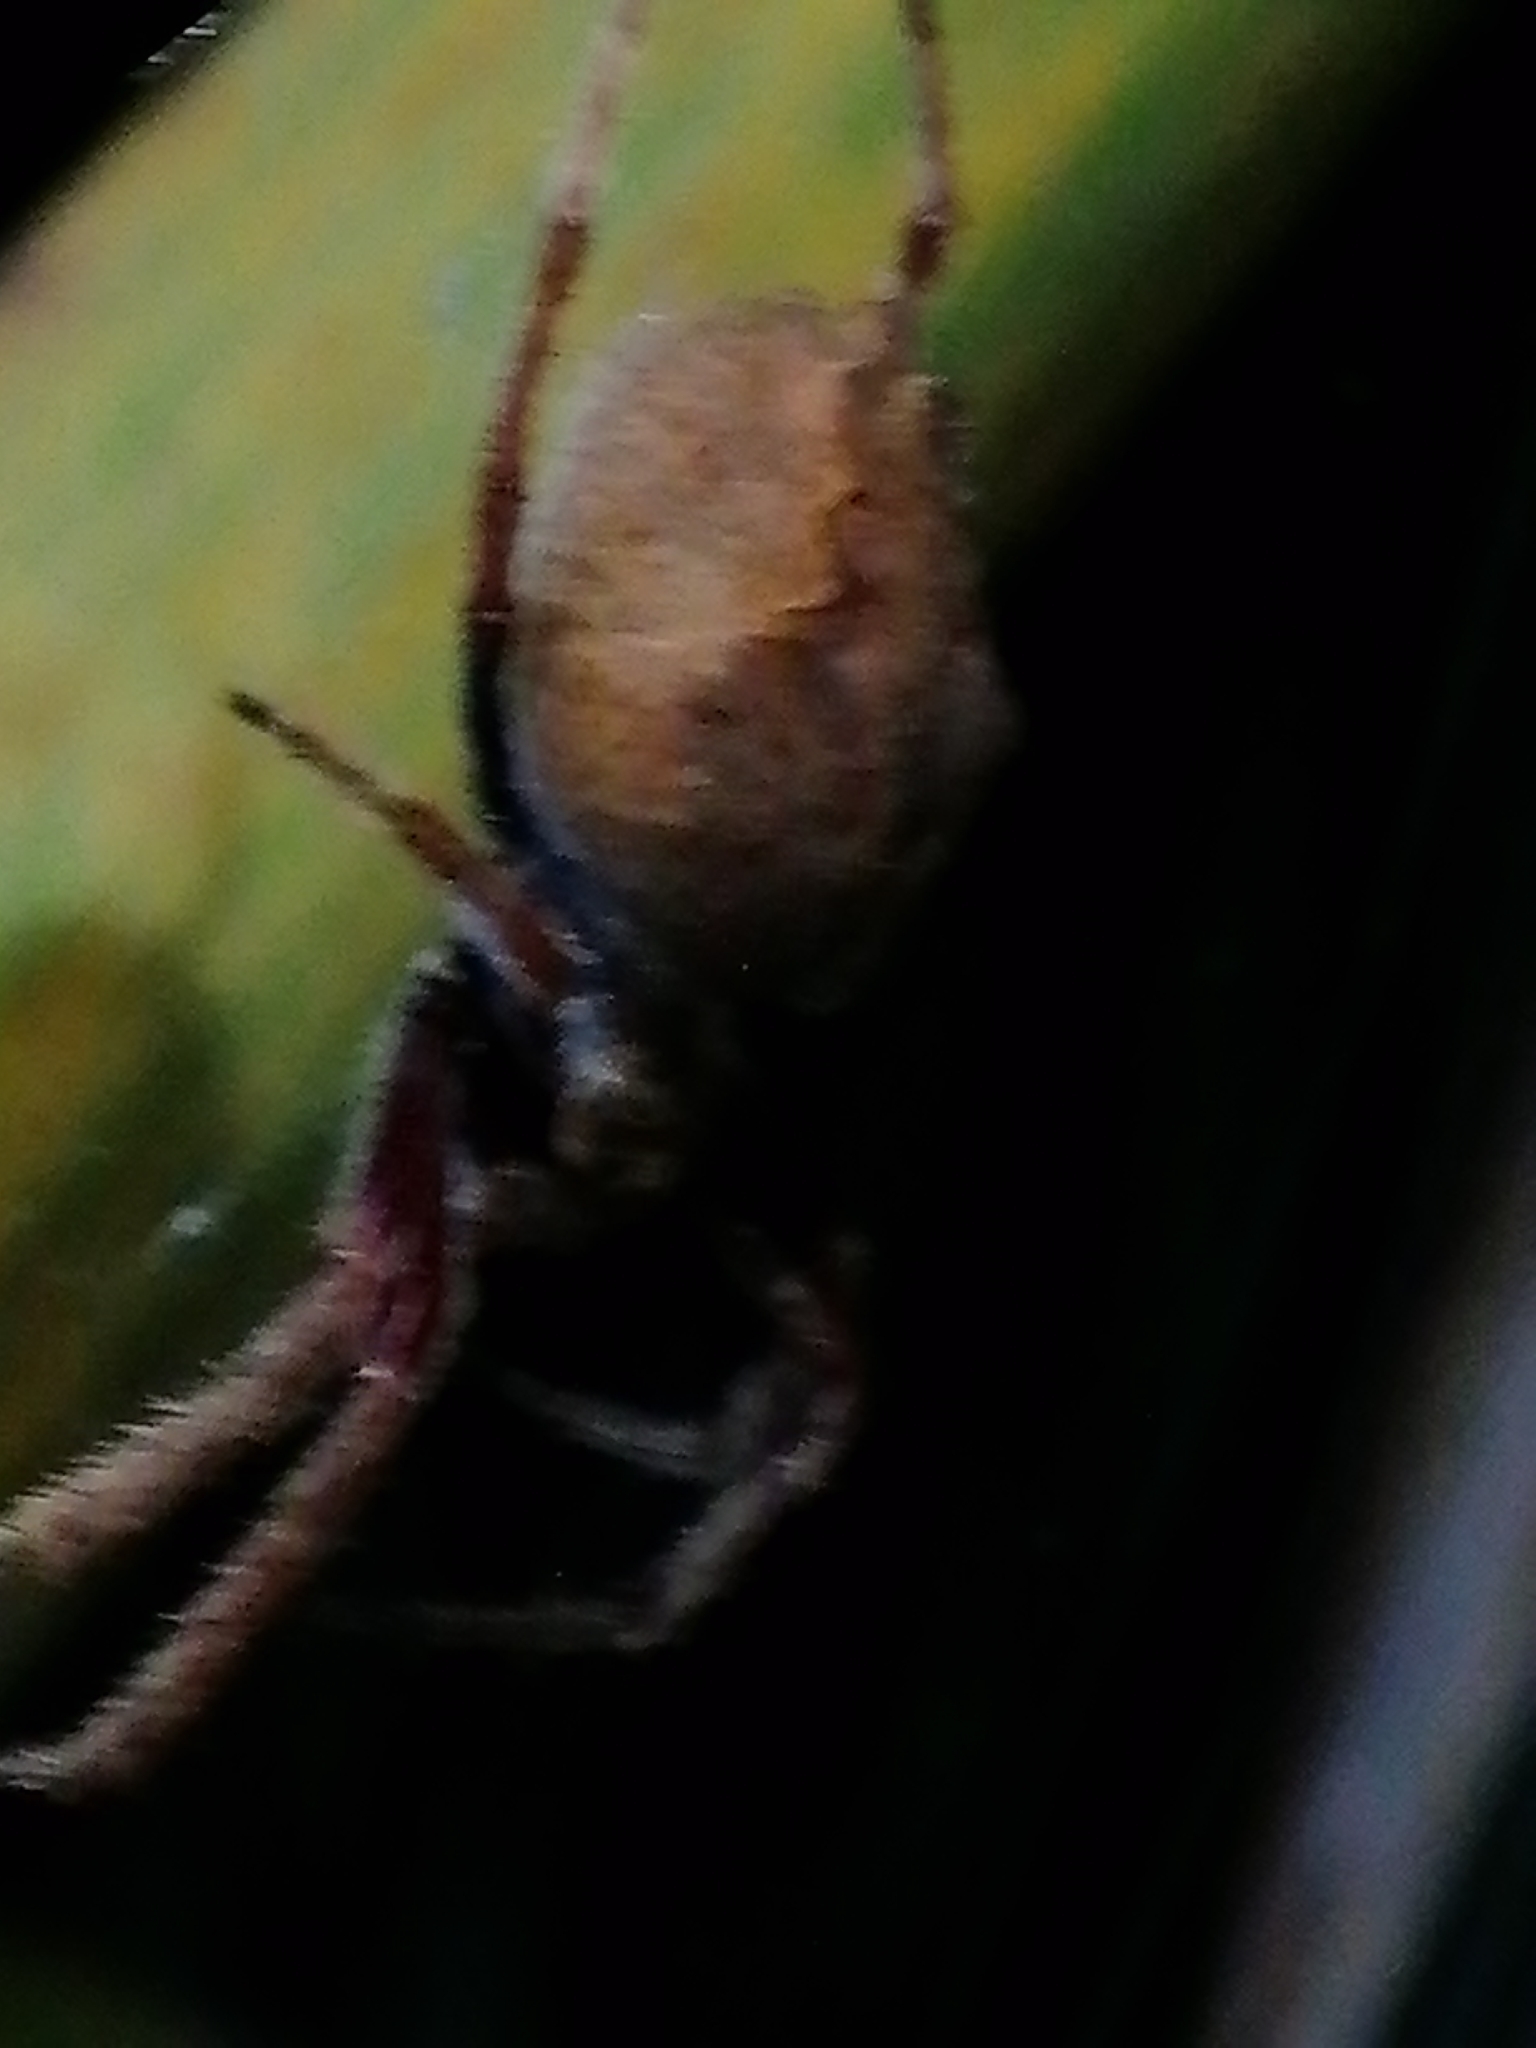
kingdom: Animalia
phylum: Arthropoda
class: Arachnida
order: Araneae
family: Araneidae
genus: Eriophora
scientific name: Eriophora pustulosa
